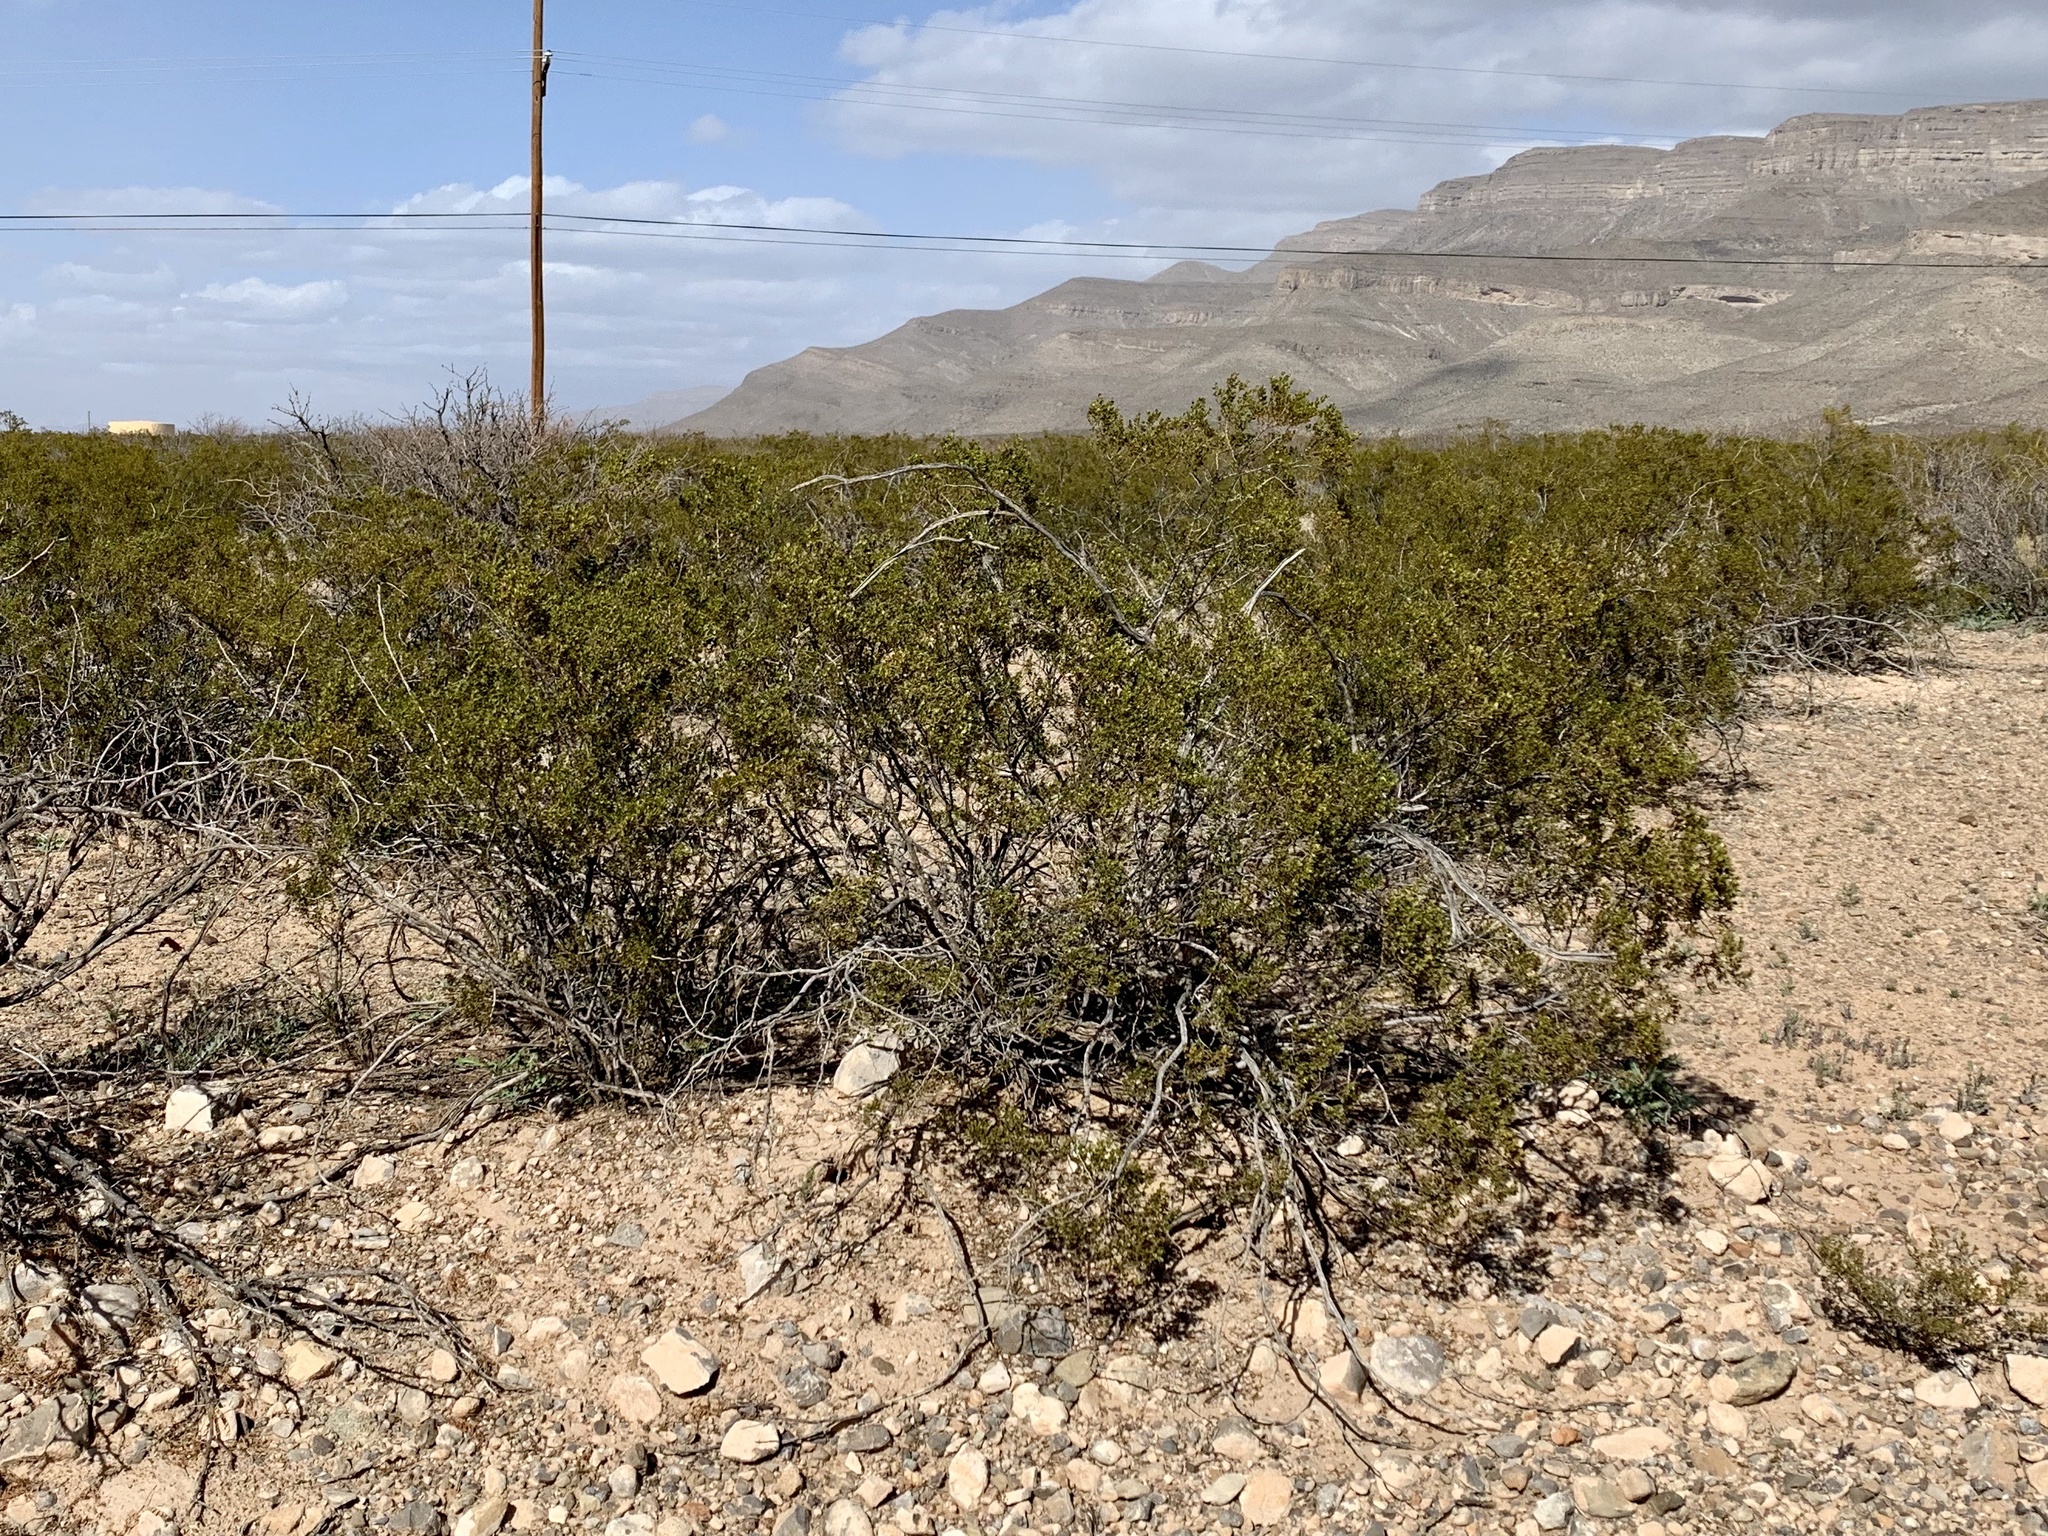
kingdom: Plantae
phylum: Tracheophyta
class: Magnoliopsida
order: Zygophyllales
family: Zygophyllaceae
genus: Larrea
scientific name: Larrea tridentata
